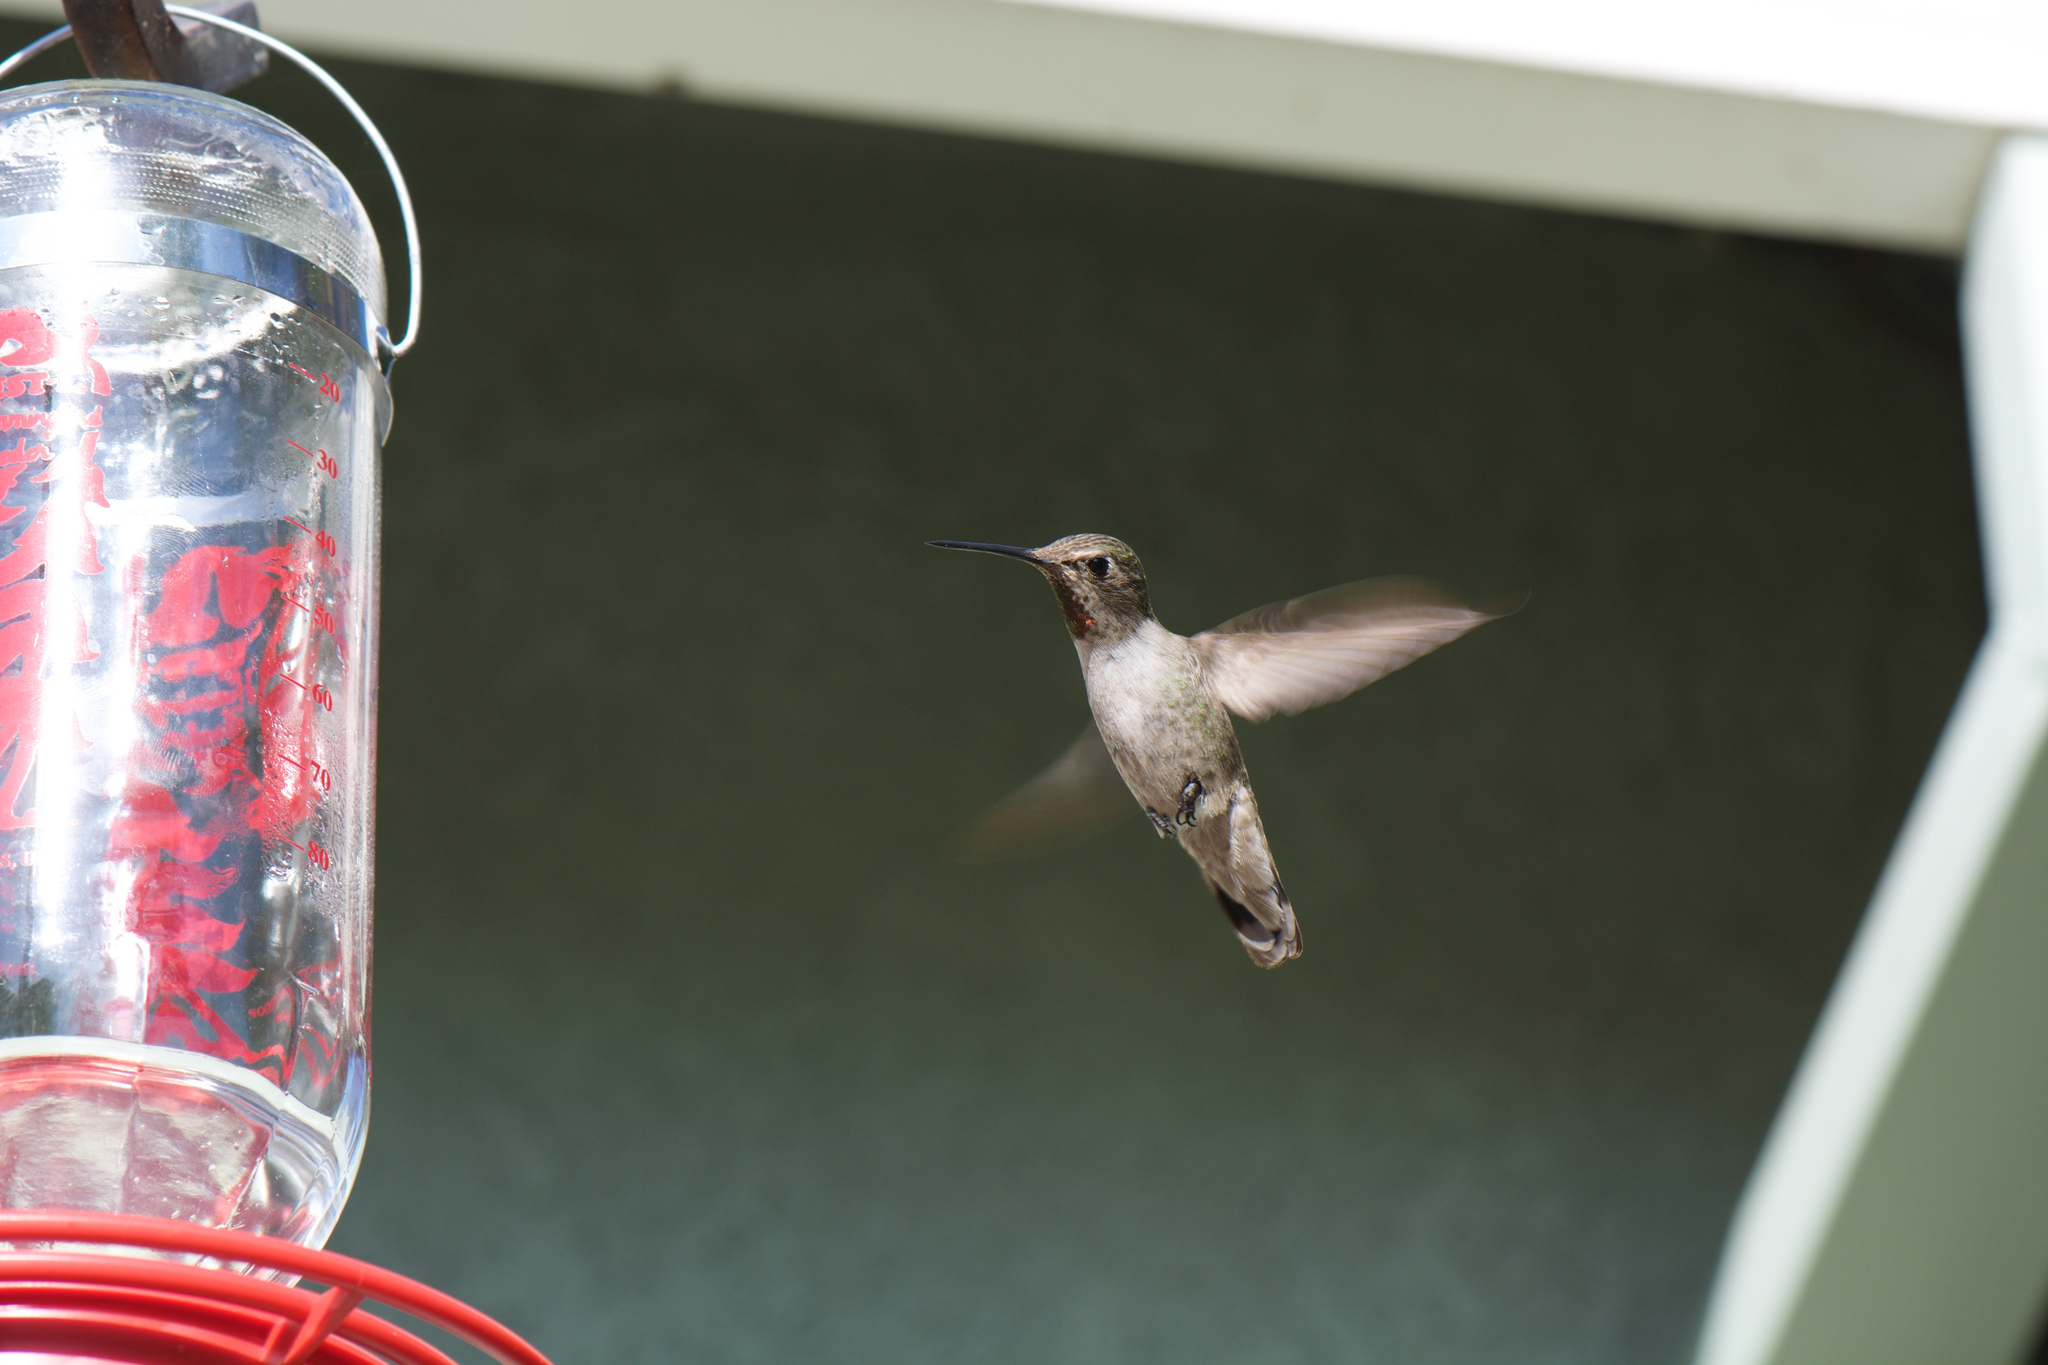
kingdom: Animalia
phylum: Chordata
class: Aves
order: Apodiformes
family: Trochilidae
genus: Calypte
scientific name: Calypte anna
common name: Anna's hummingbird
